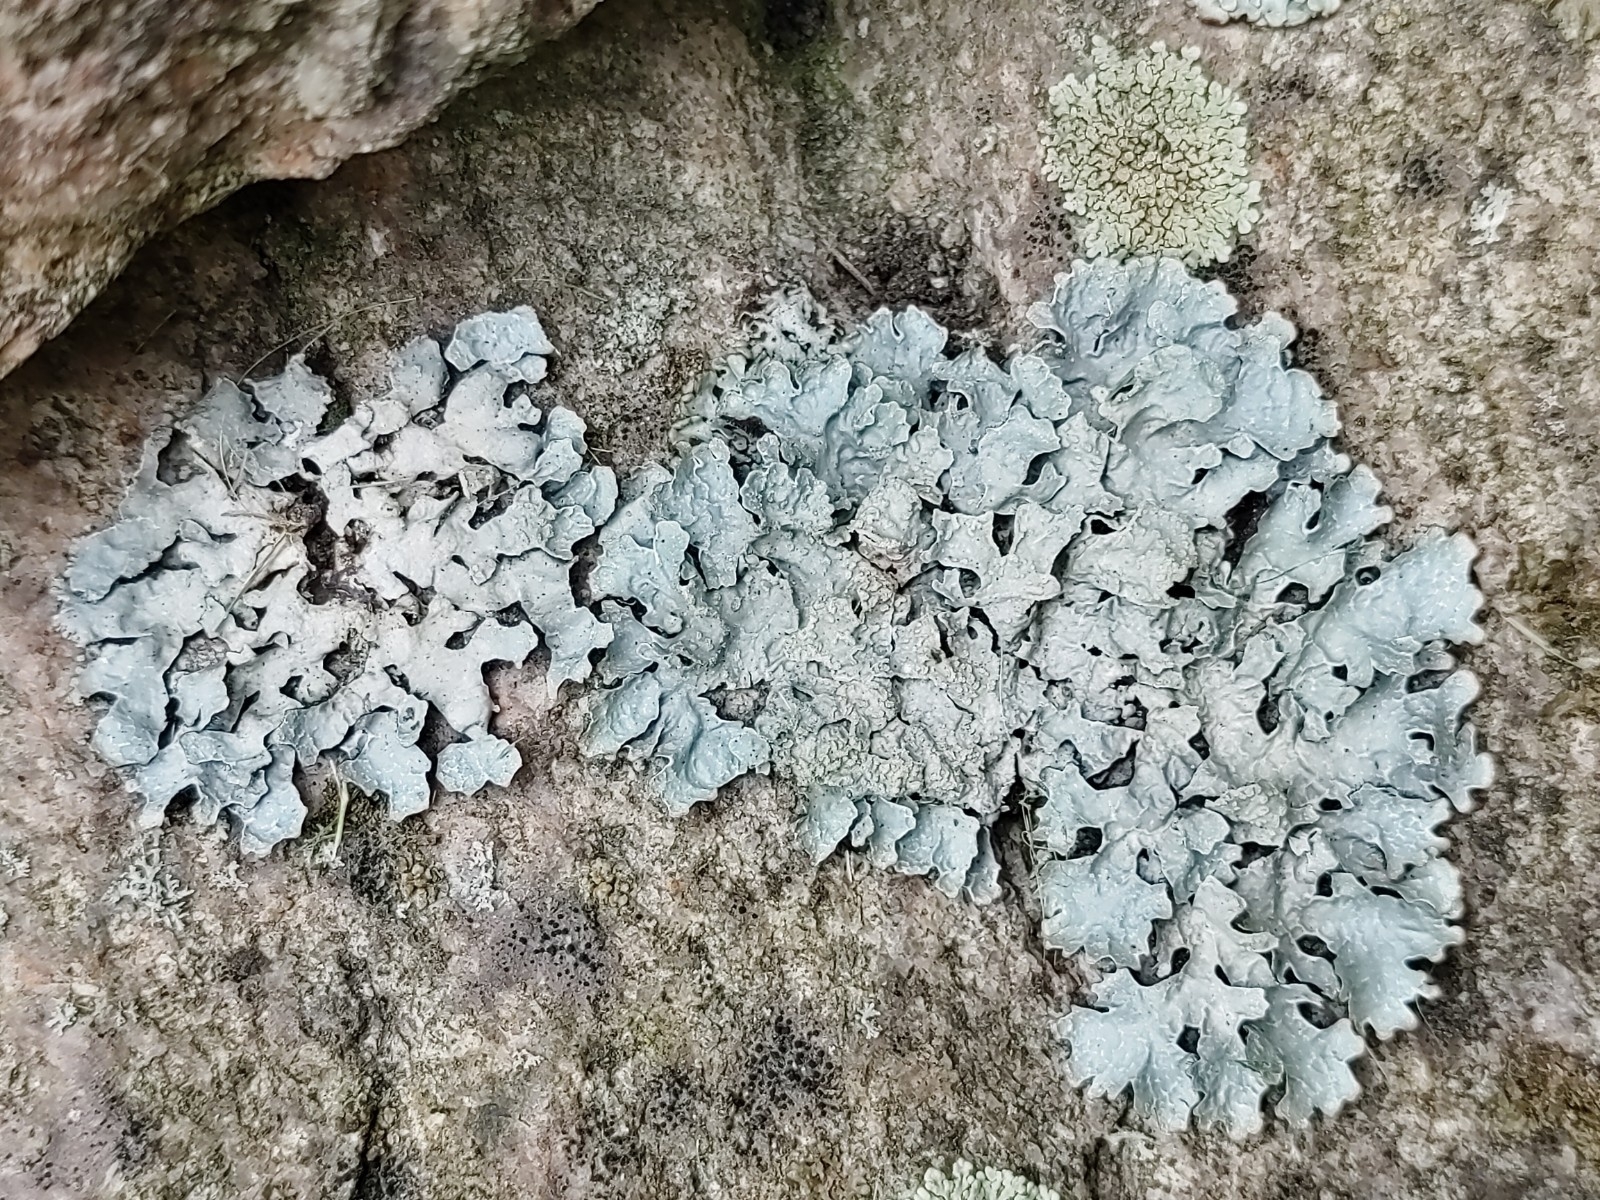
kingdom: Fungi
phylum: Ascomycota
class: Lecanoromycetes
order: Lecanorales
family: Parmeliaceae
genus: Parmelia
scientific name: Parmelia sulcata
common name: Netted shield lichen
